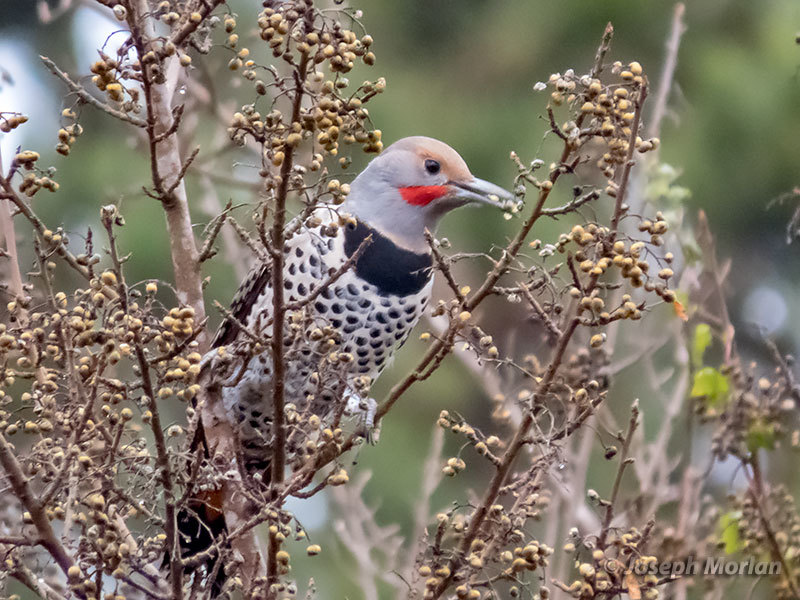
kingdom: Animalia
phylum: Chordata
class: Aves
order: Piciformes
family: Picidae
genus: Colaptes
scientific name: Colaptes auratus
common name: Northern flicker
